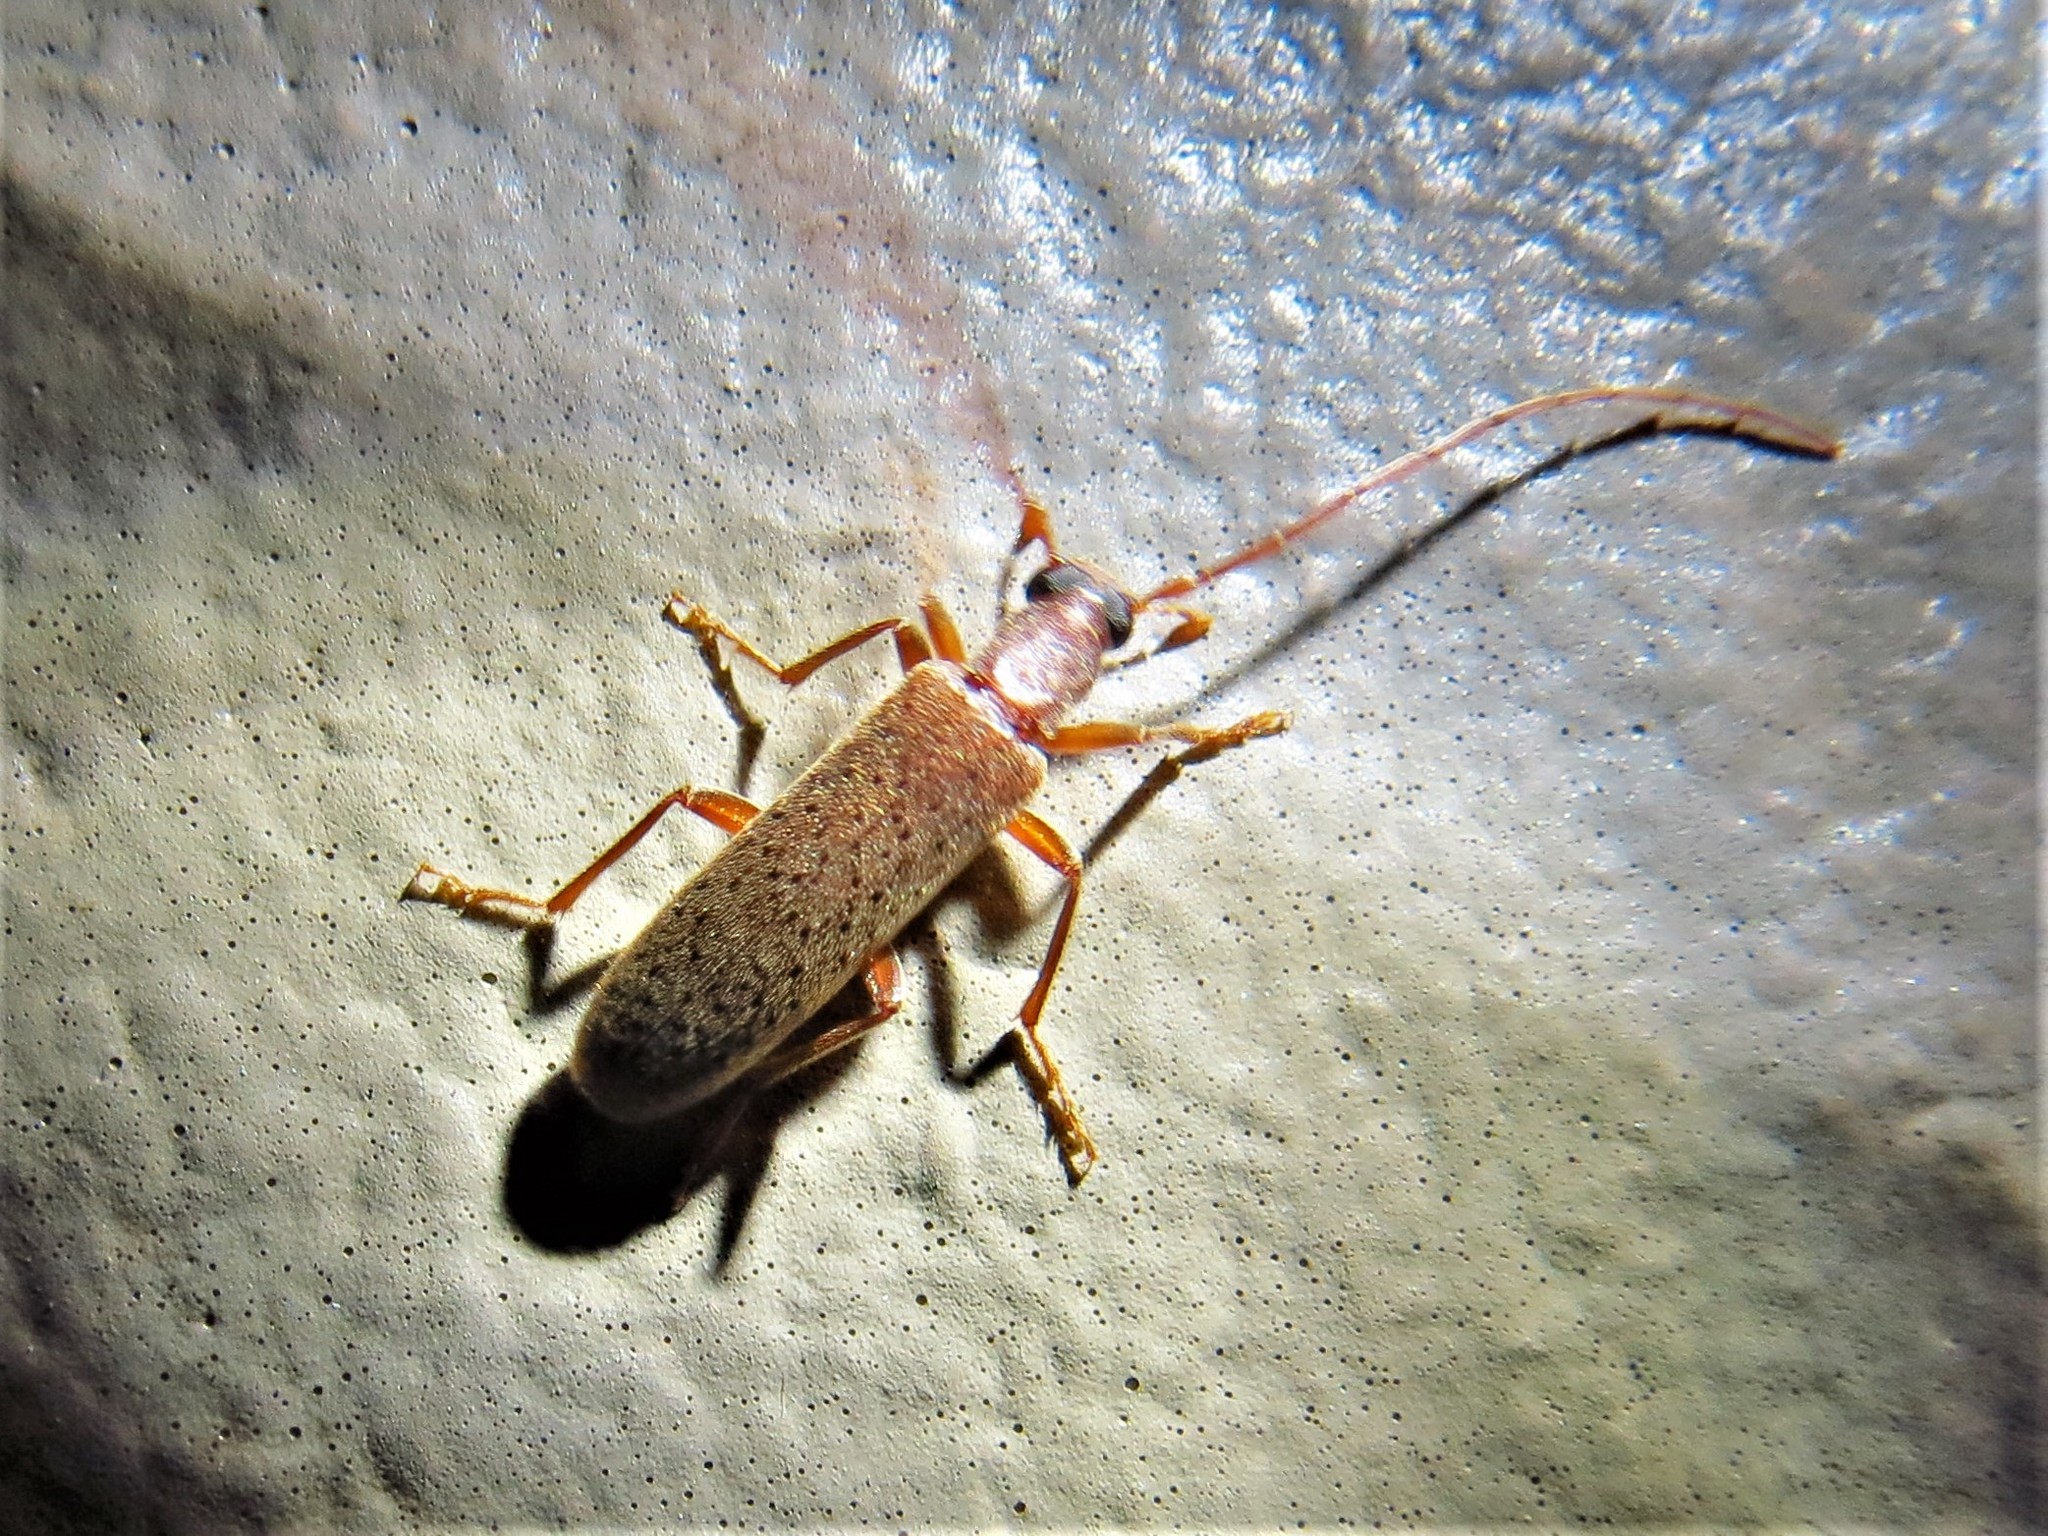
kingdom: Animalia
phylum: Arthropoda
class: Insecta
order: Coleoptera
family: Oedemeridae
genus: Sparedrus
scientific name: Sparedrus aspersus
